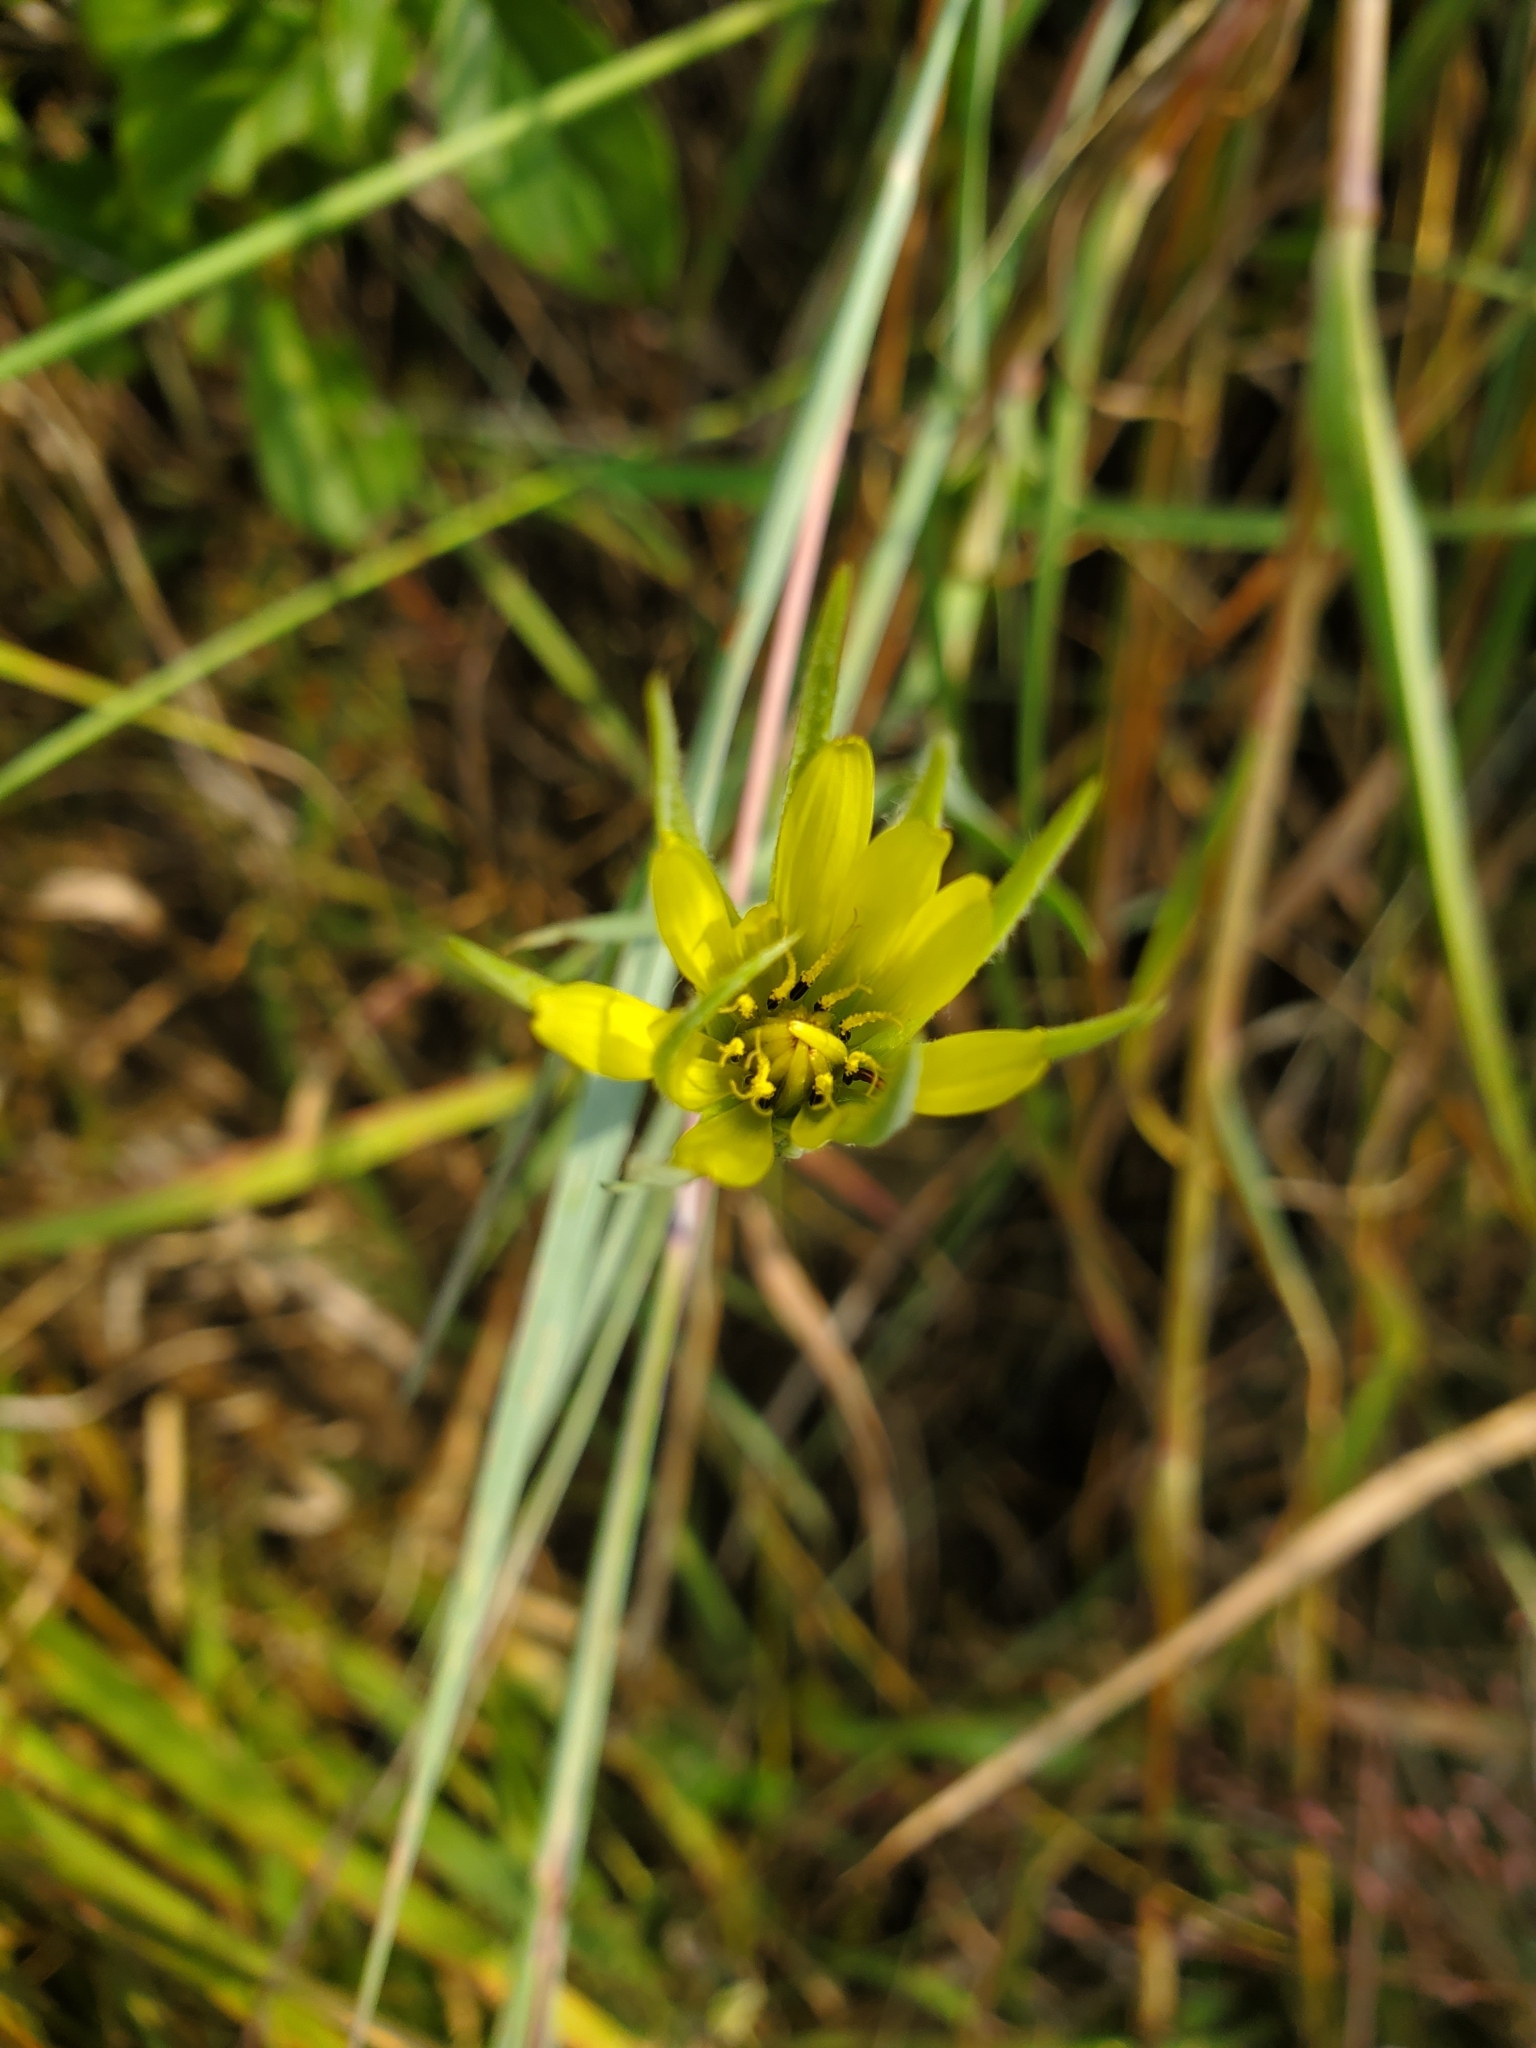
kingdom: Plantae
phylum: Tracheophyta
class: Magnoliopsida
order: Asterales
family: Asteraceae
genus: Tragopogon
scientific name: Tragopogon dubius
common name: Yellow salsify
